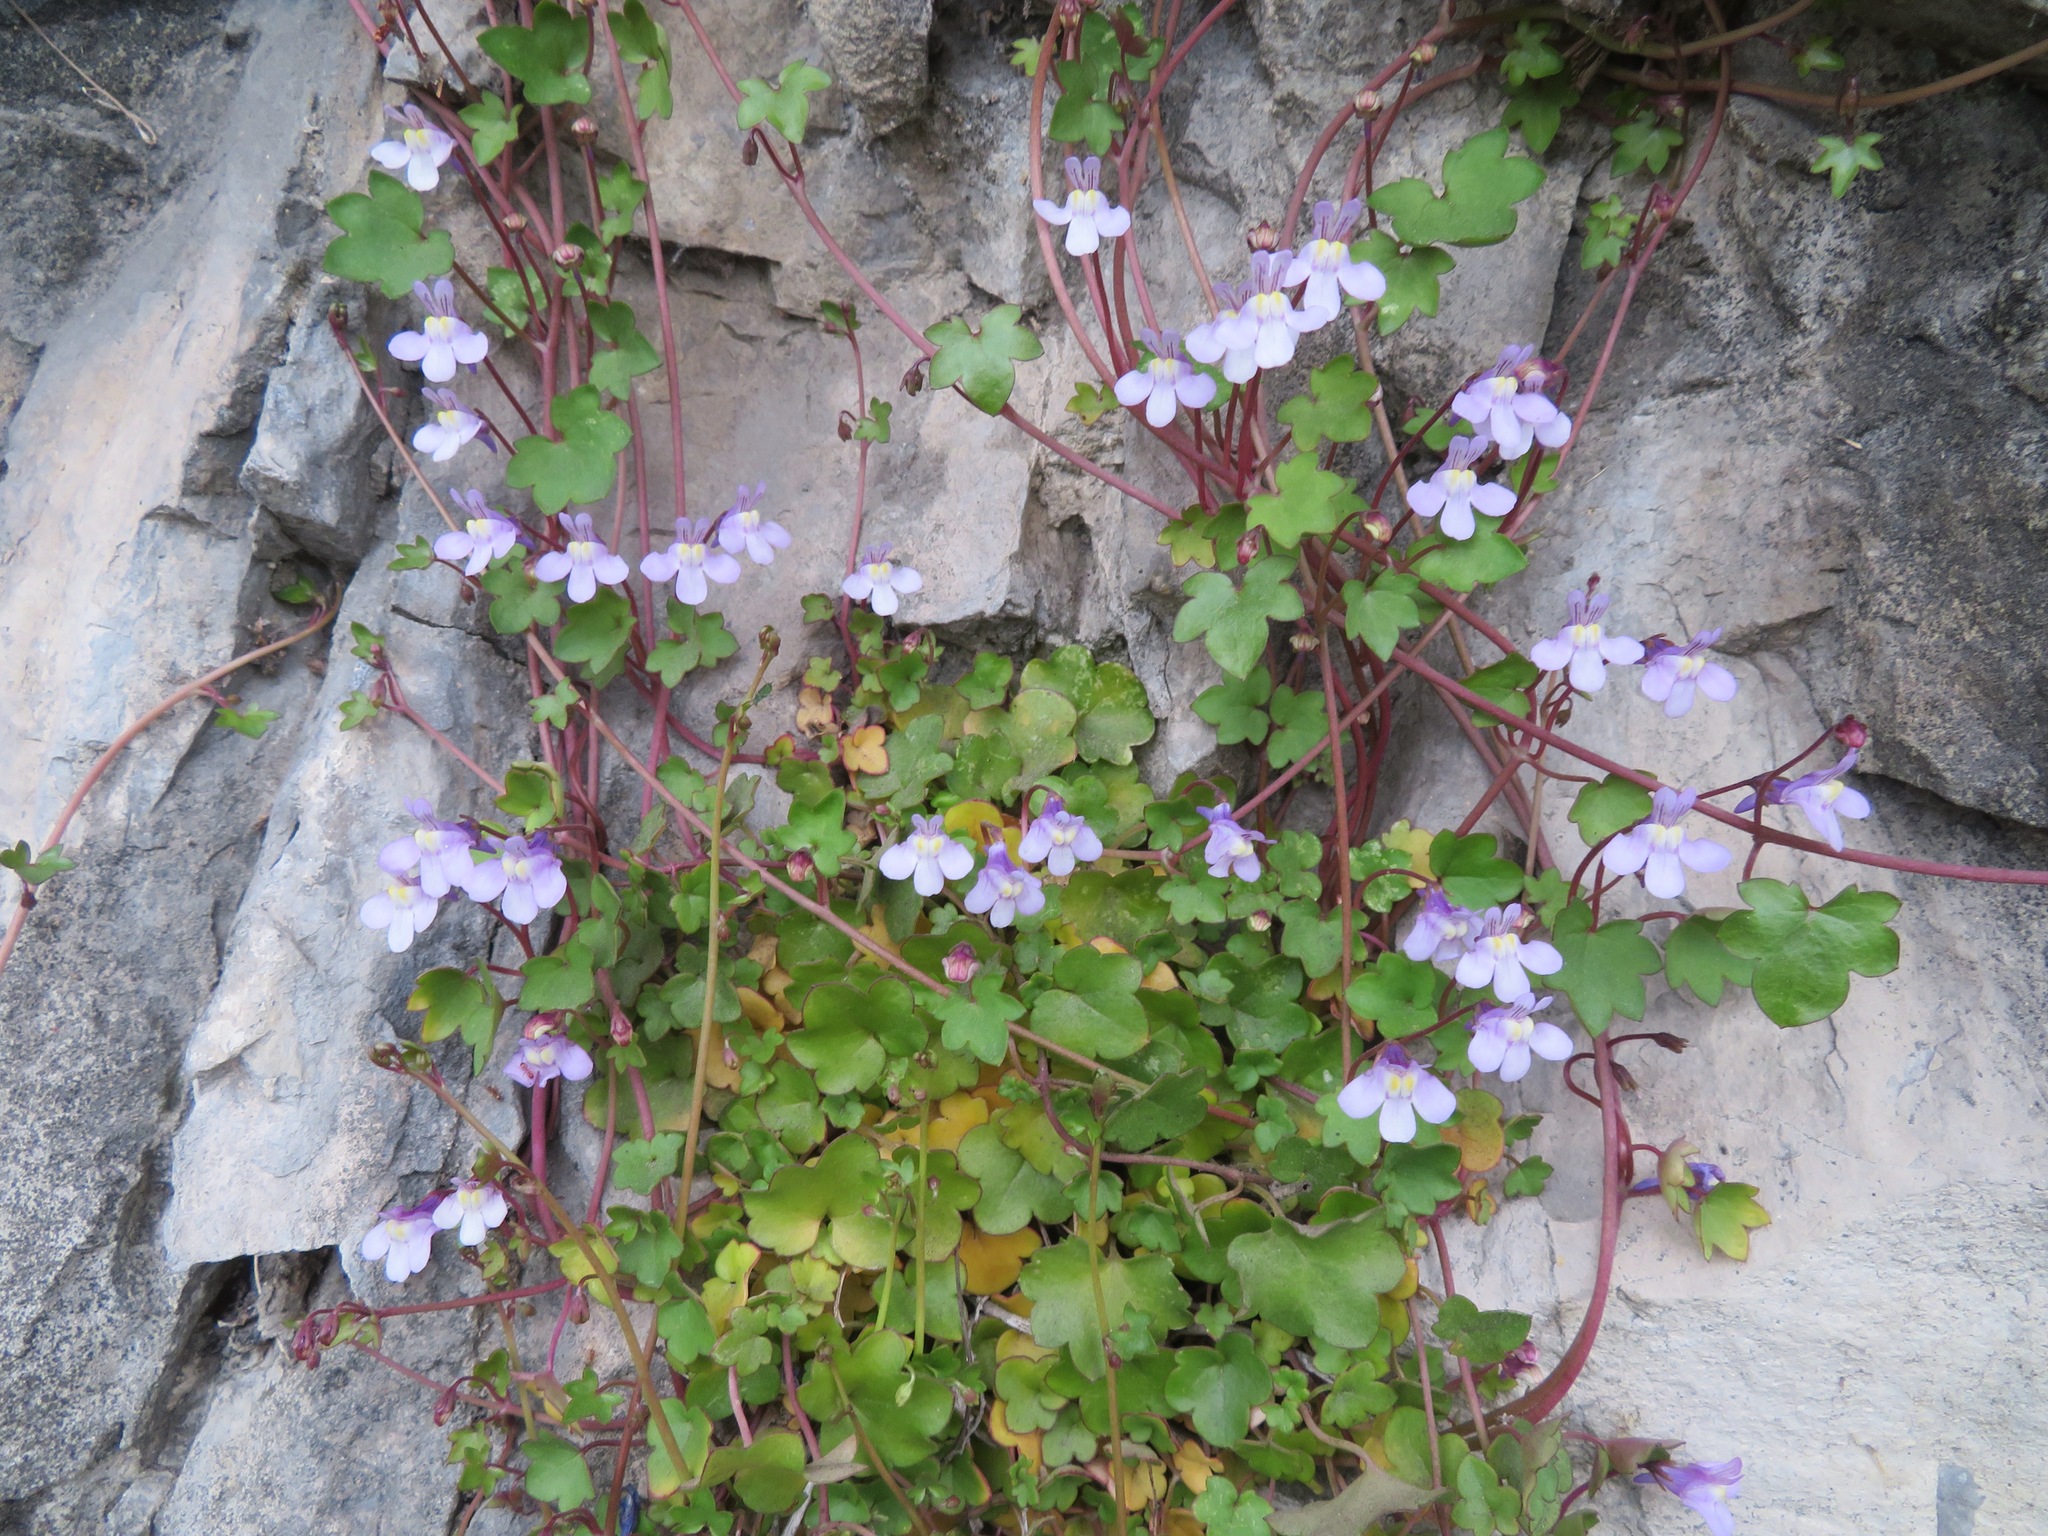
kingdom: Plantae
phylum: Tracheophyta
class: Magnoliopsida
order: Lamiales
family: Plantaginaceae
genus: Cymbalaria
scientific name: Cymbalaria muralis
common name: Ivy-leaved toadflax
